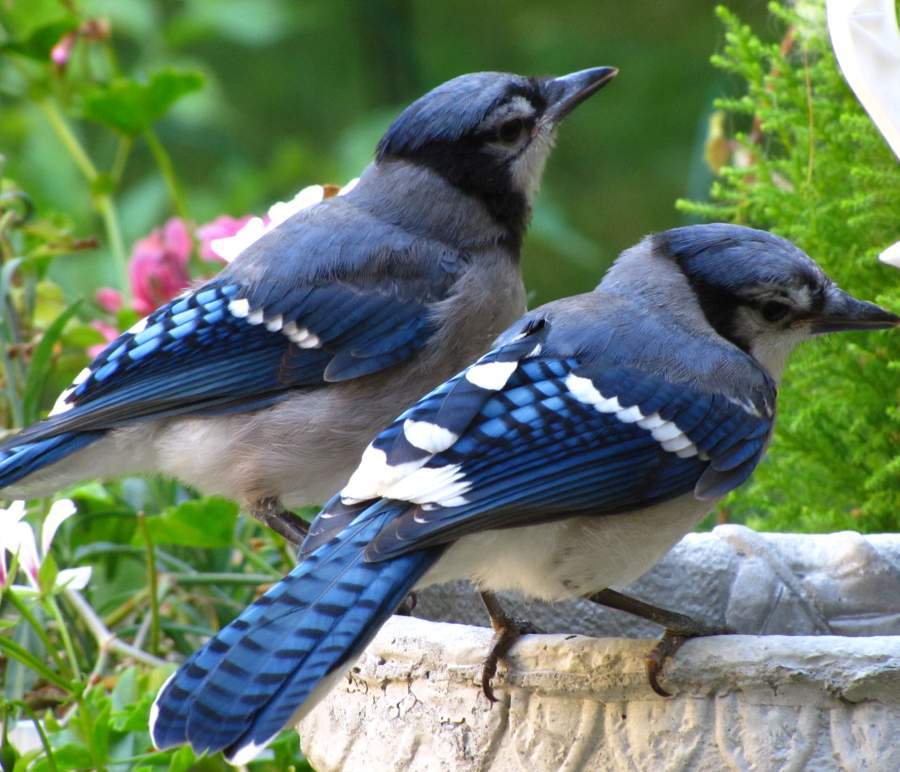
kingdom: Animalia
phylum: Chordata
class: Aves
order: Passeriformes
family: Corvidae
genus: Cyanocitta
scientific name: Cyanocitta cristata
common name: Blue jay
